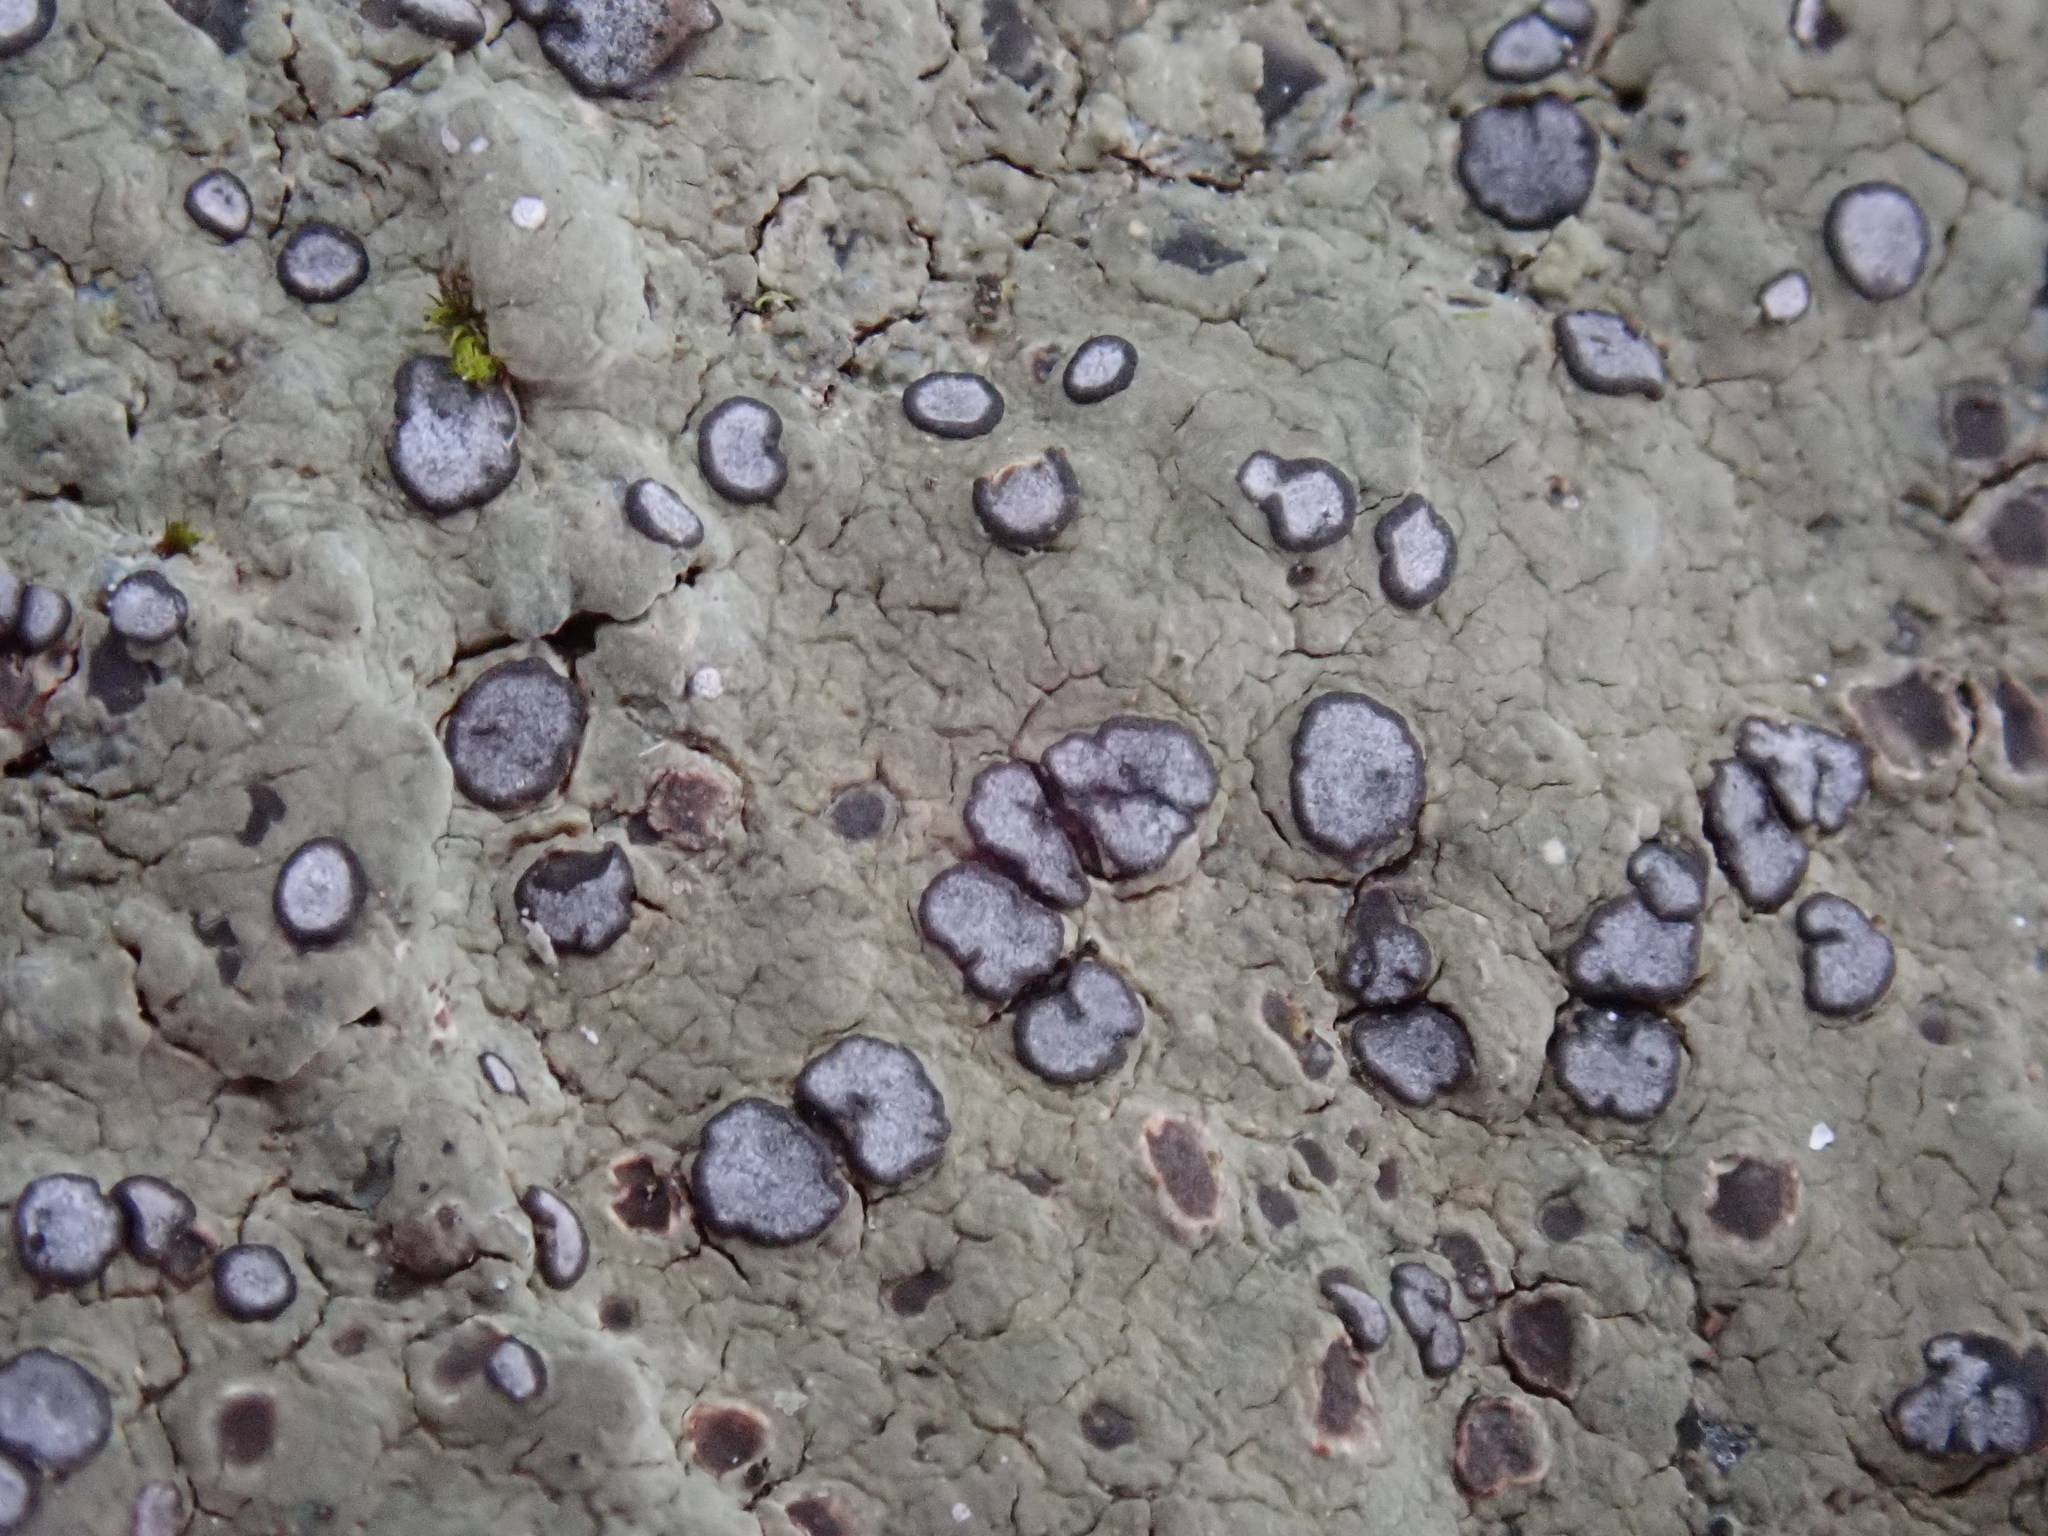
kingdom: Fungi
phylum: Ascomycota
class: Lecanoromycetes
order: Lecideales
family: Lecideaceae
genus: Porpidia
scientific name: Porpidia albocaerulescens
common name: Smokey-eyed boulder lichen
